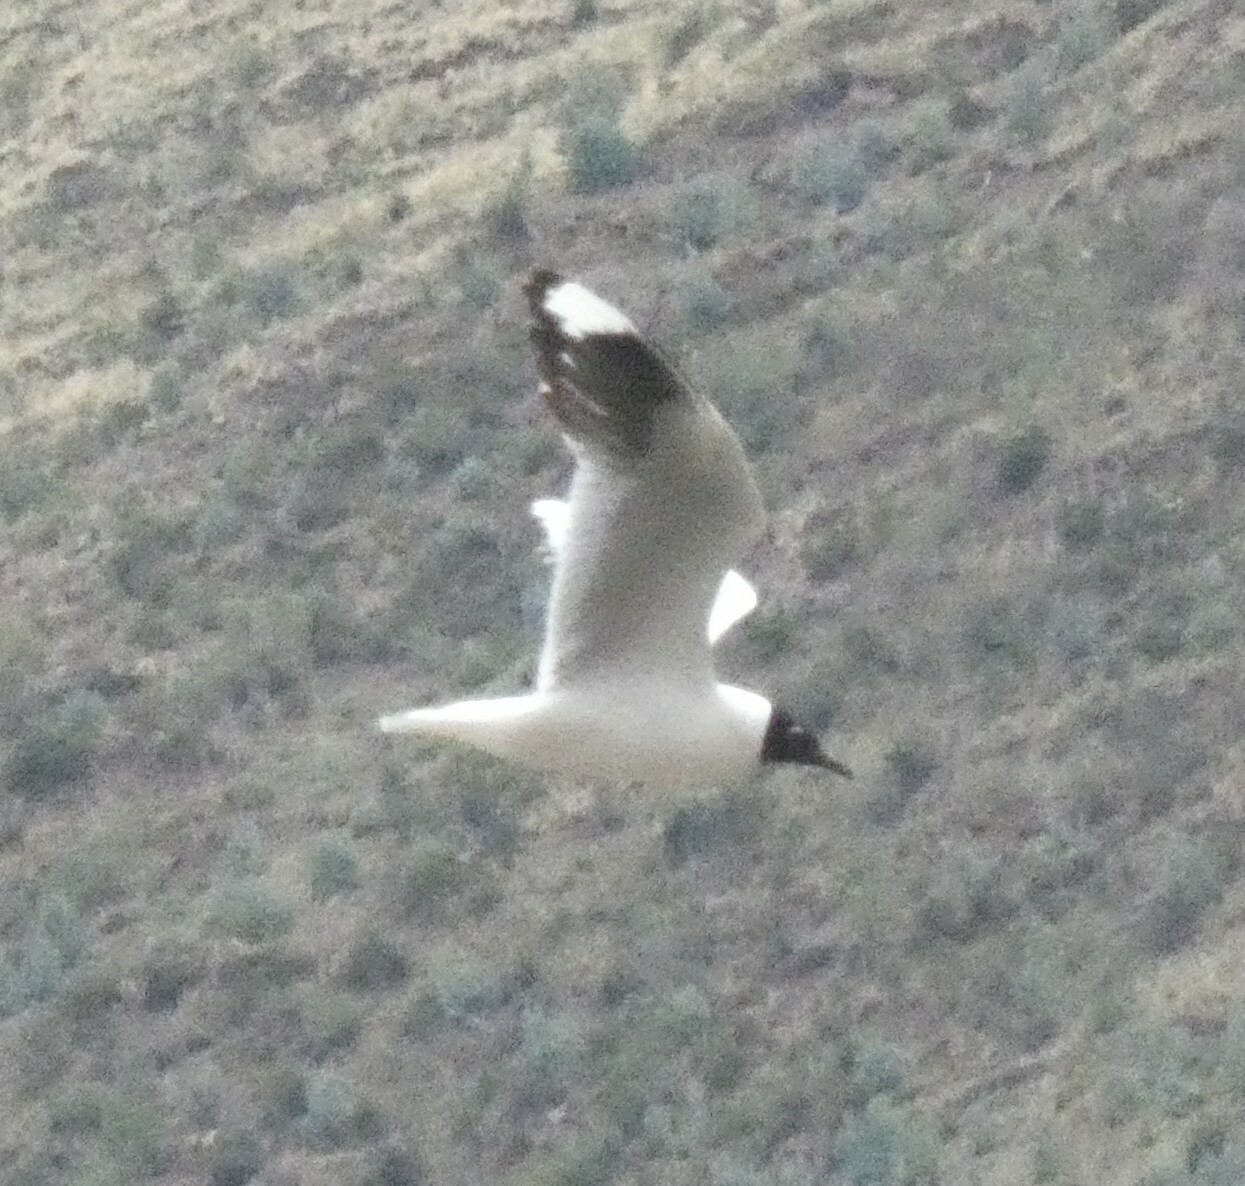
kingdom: Animalia
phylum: Chordata
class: Aves
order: Charadriiformes
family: Laridae
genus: Chroicocephalus
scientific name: Chroicocephalus serranus
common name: Andean gull
